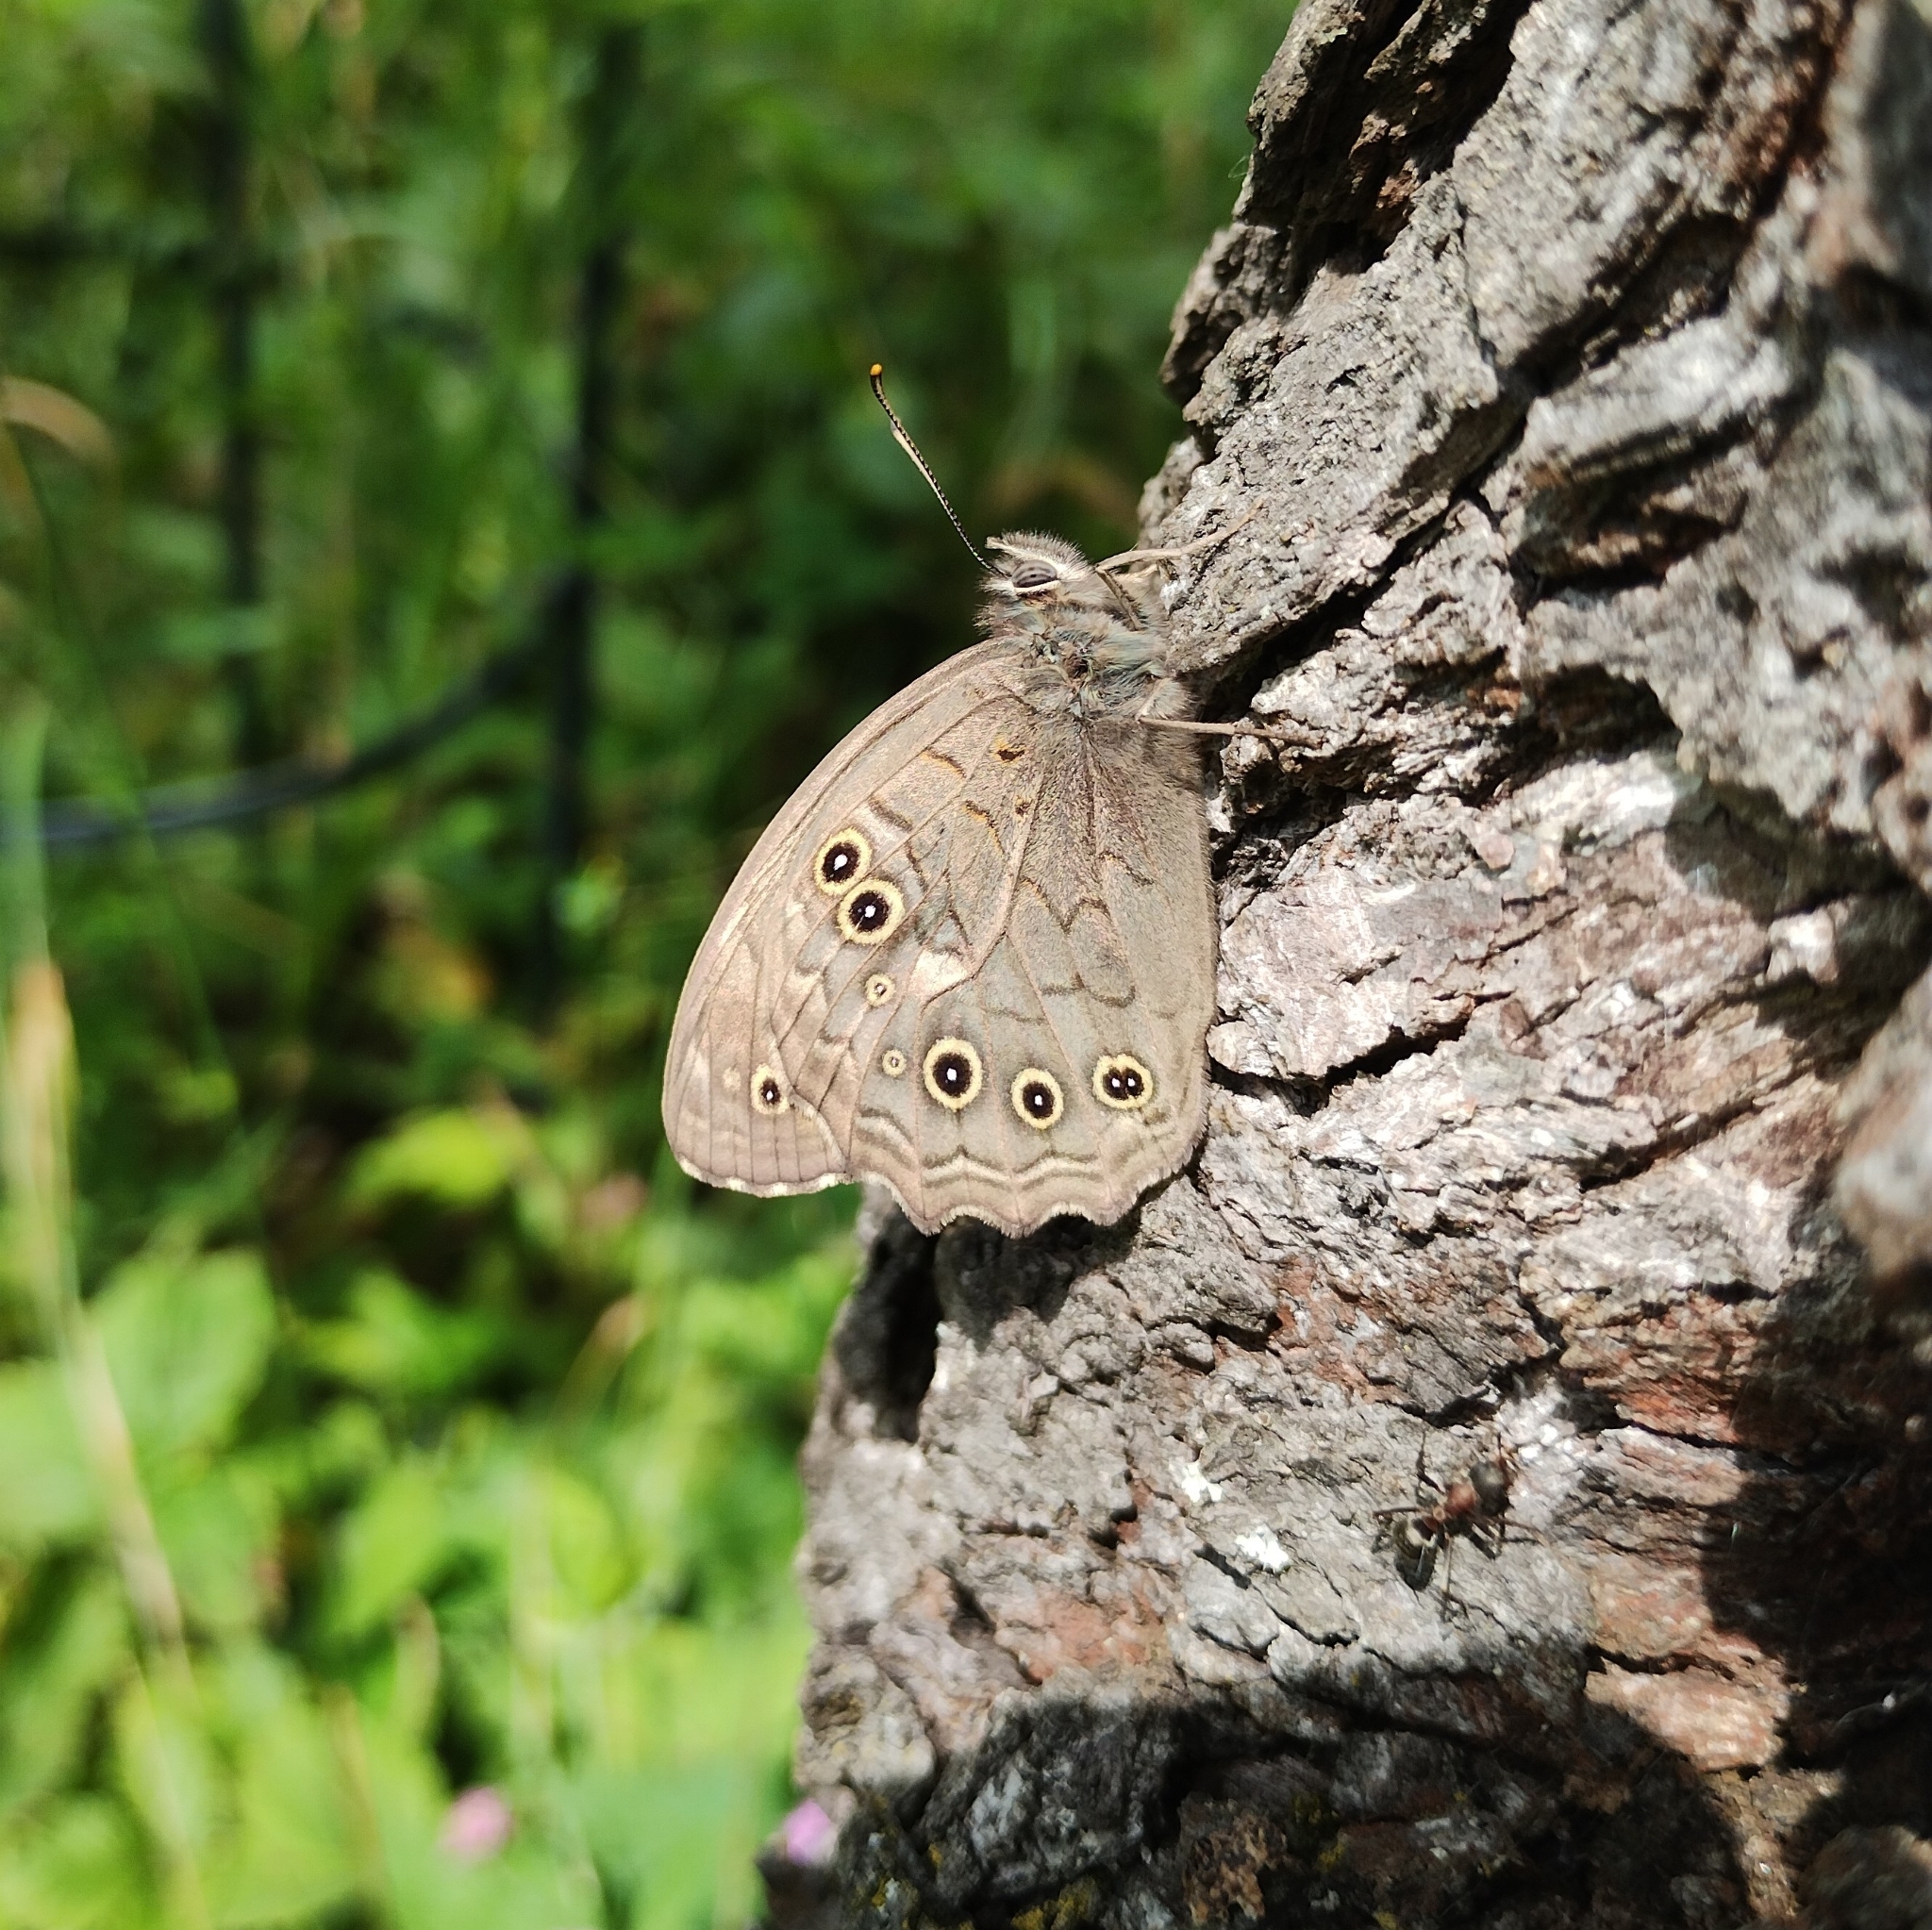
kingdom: Animalia
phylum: Arthropoda
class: Insecta
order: Lepidoptera
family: Nymphalidae
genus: Kirinia
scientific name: Kirinia roxelana
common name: Lattice brown
